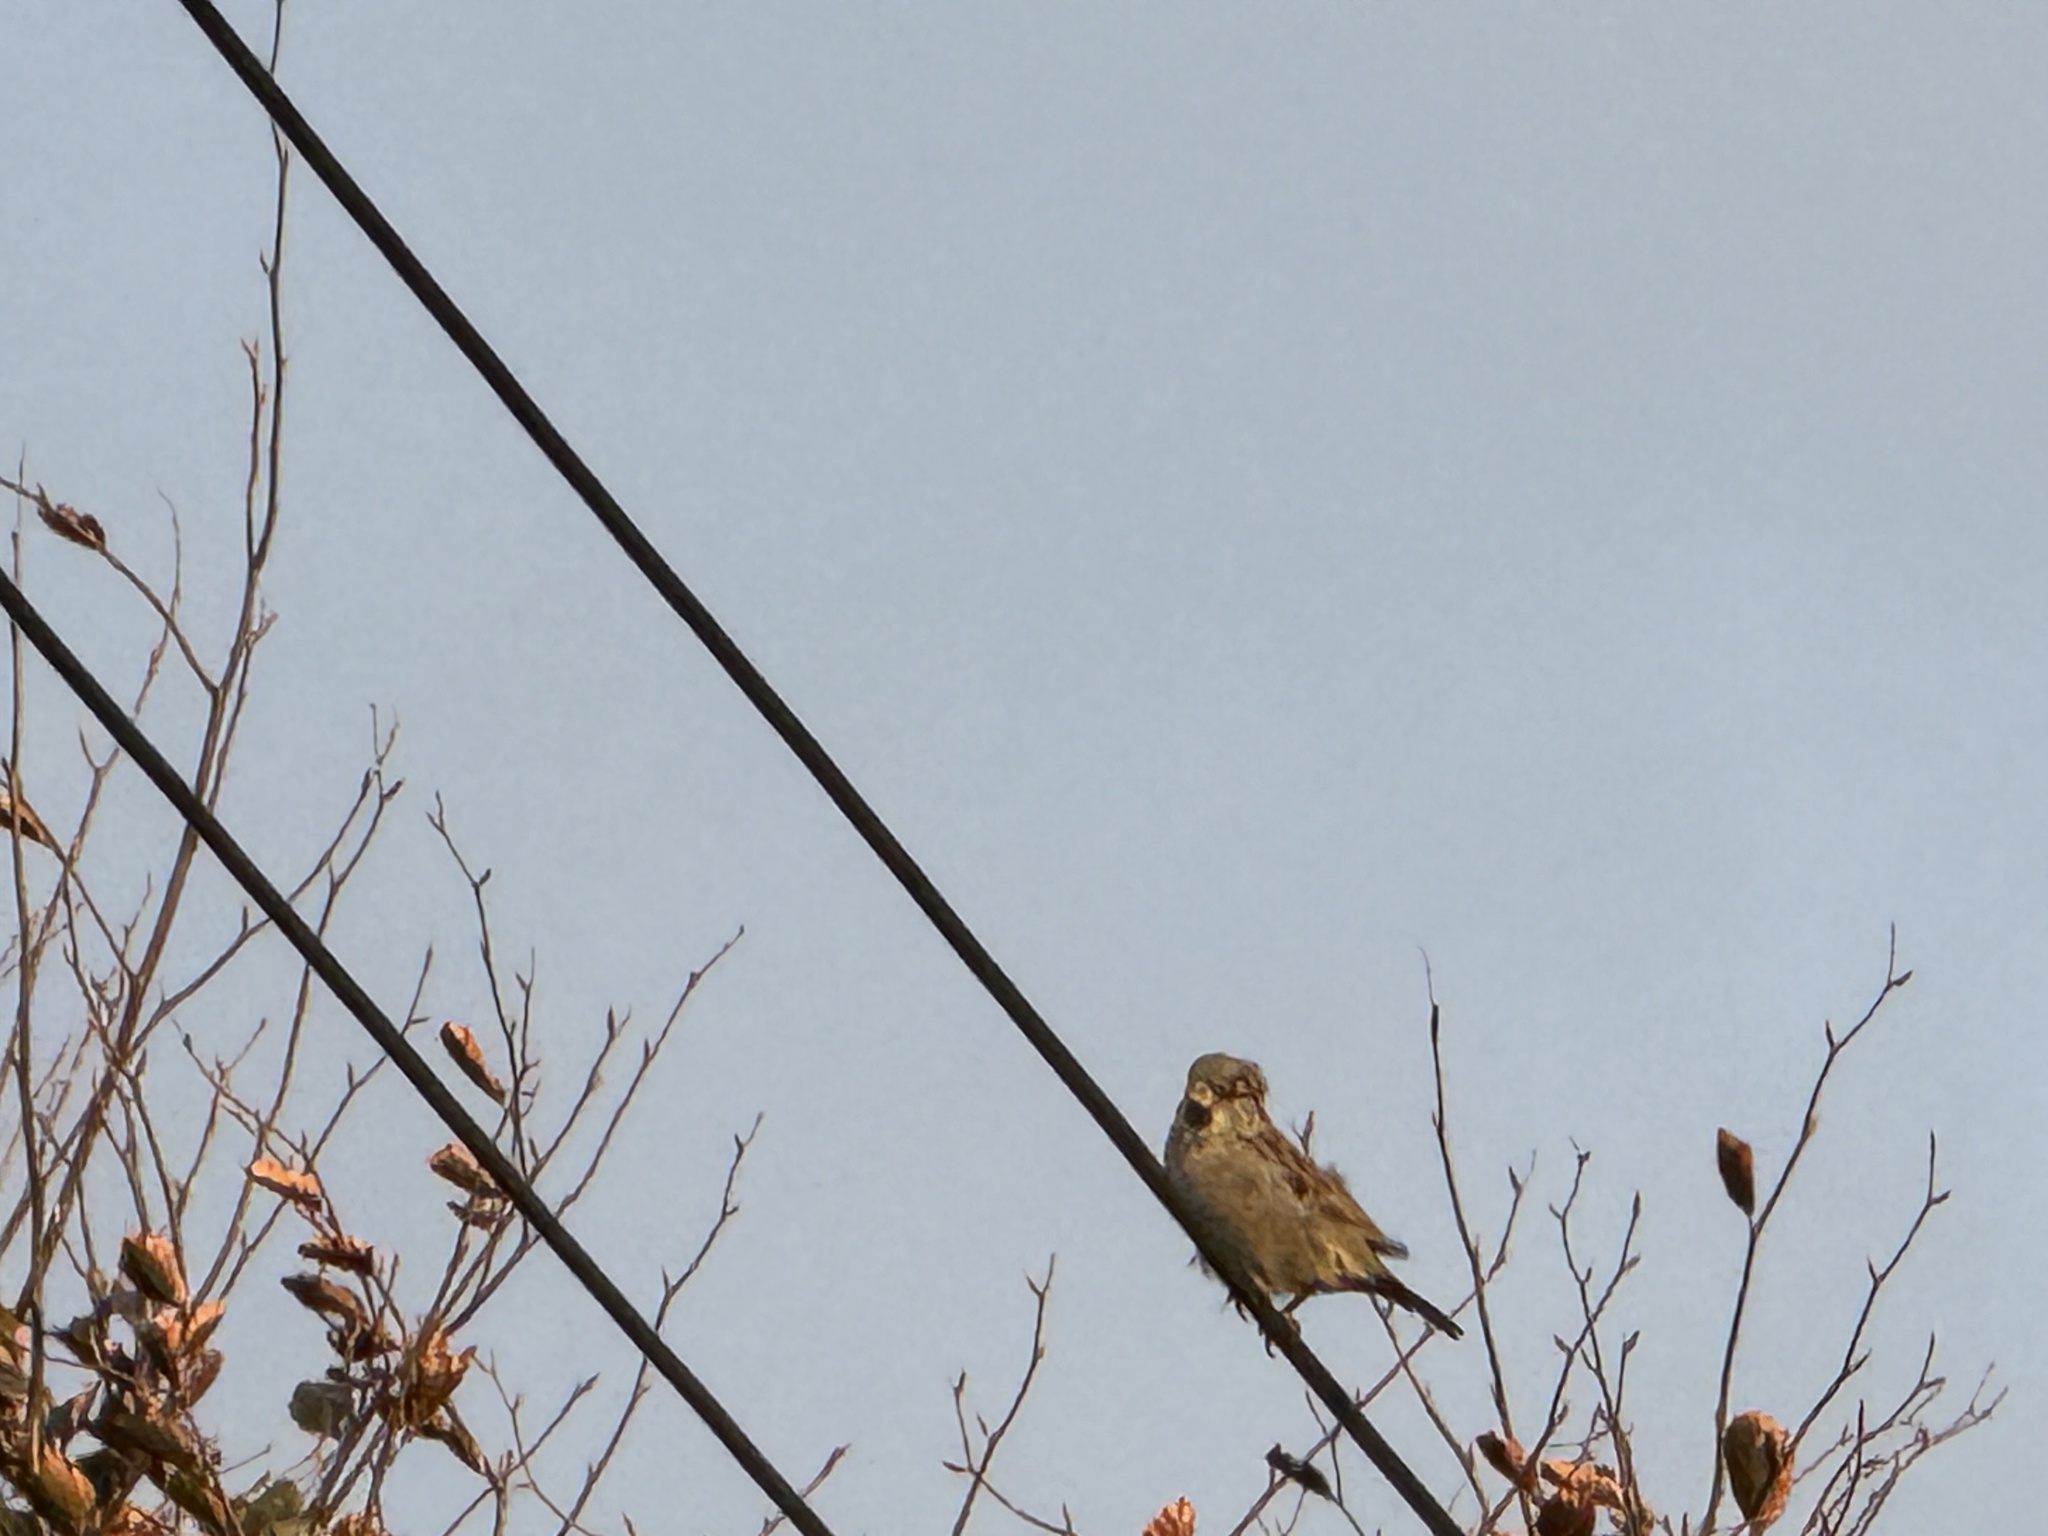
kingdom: Animalia
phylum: Chordata
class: Aves
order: Passeriformes
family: Passeridae
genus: Passer
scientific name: Passer domesticus
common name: House sparrow
